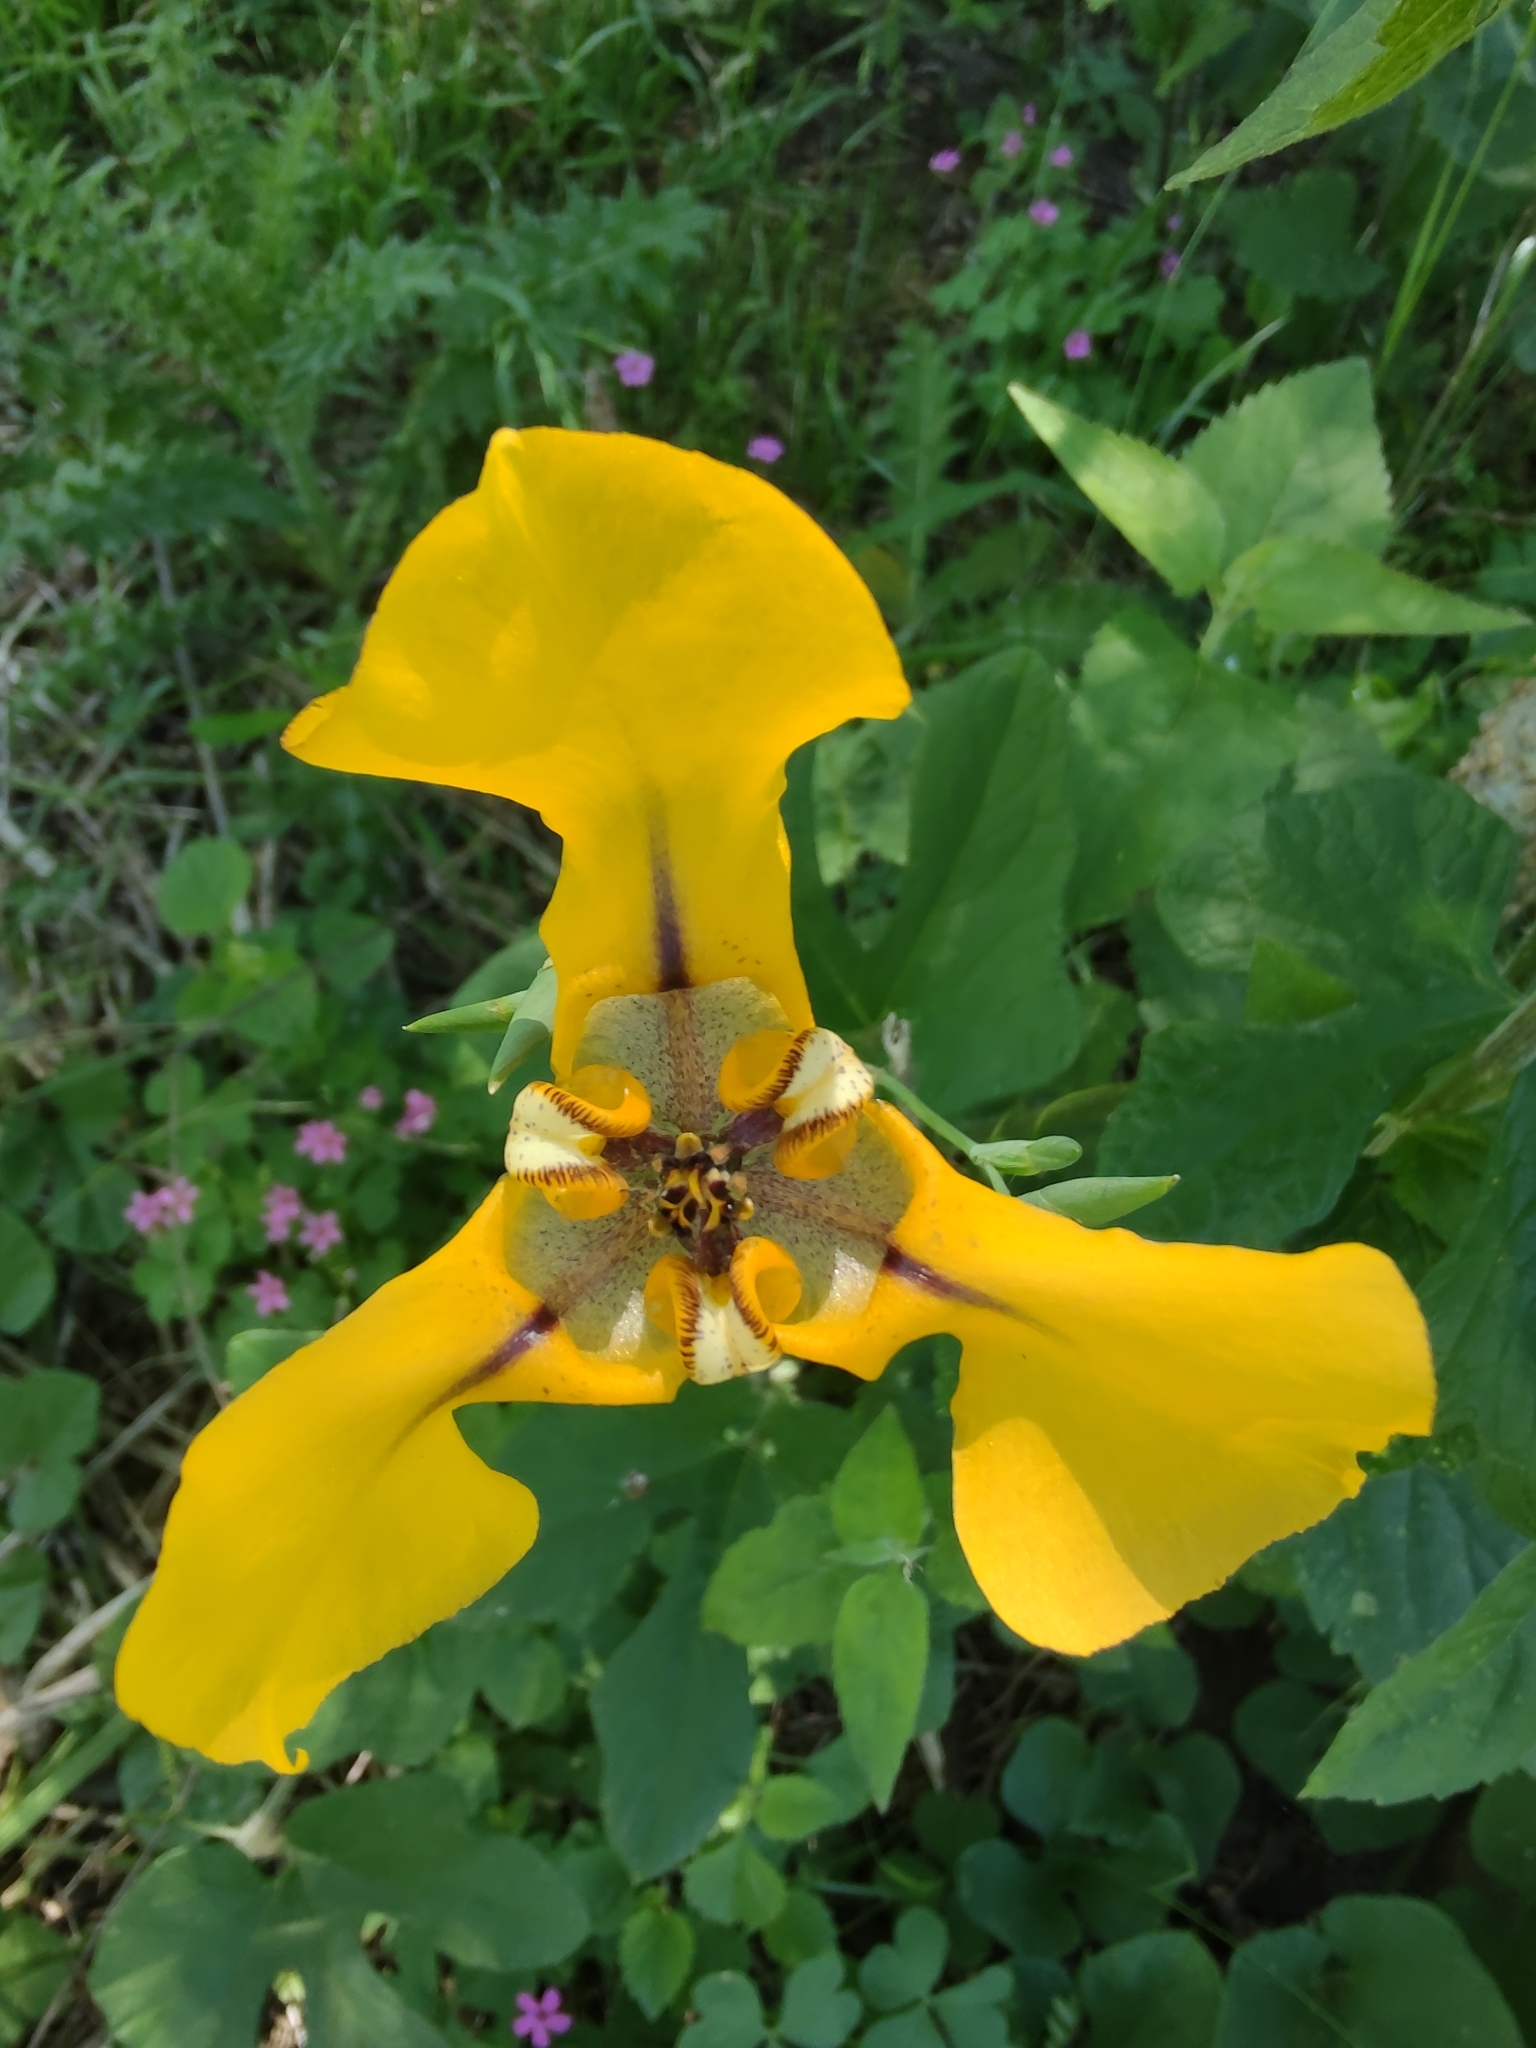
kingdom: Plantae
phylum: Tracheophyta
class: Liliopsida
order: Asparagales
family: Iridaceae
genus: Cypella
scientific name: Cypella herbertii
